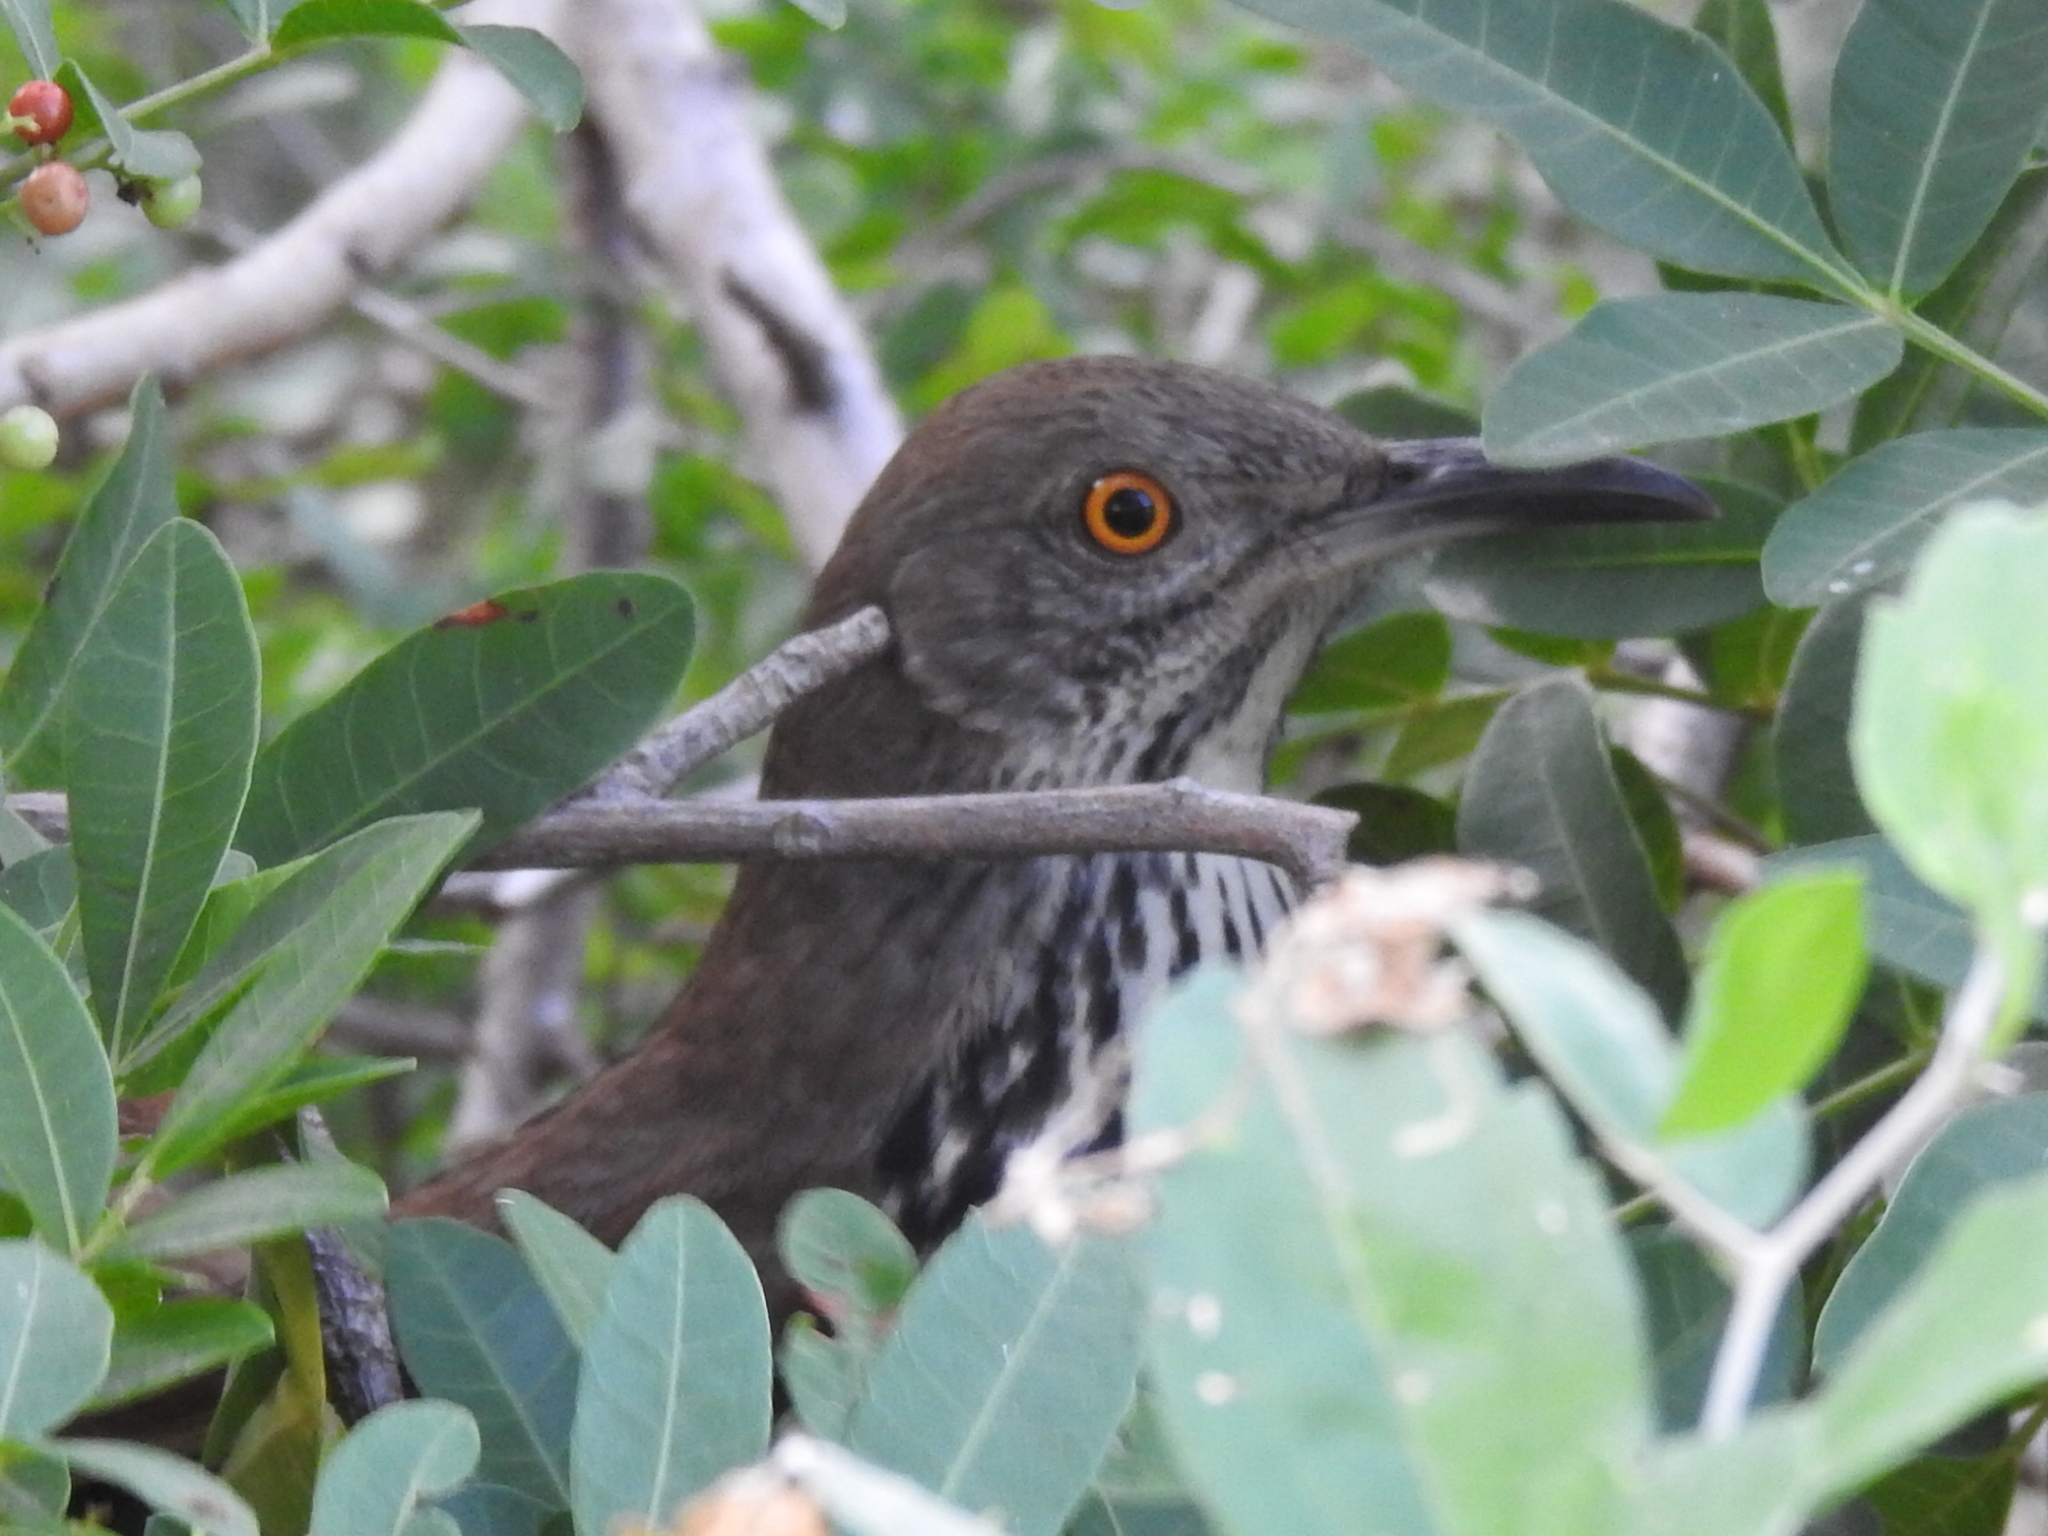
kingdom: Animalia
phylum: Chordata
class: Aves
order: Passeriformes
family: Mimidae
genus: Toxostoma
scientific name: Toxostoma longirostre
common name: Long-billed thrasher
